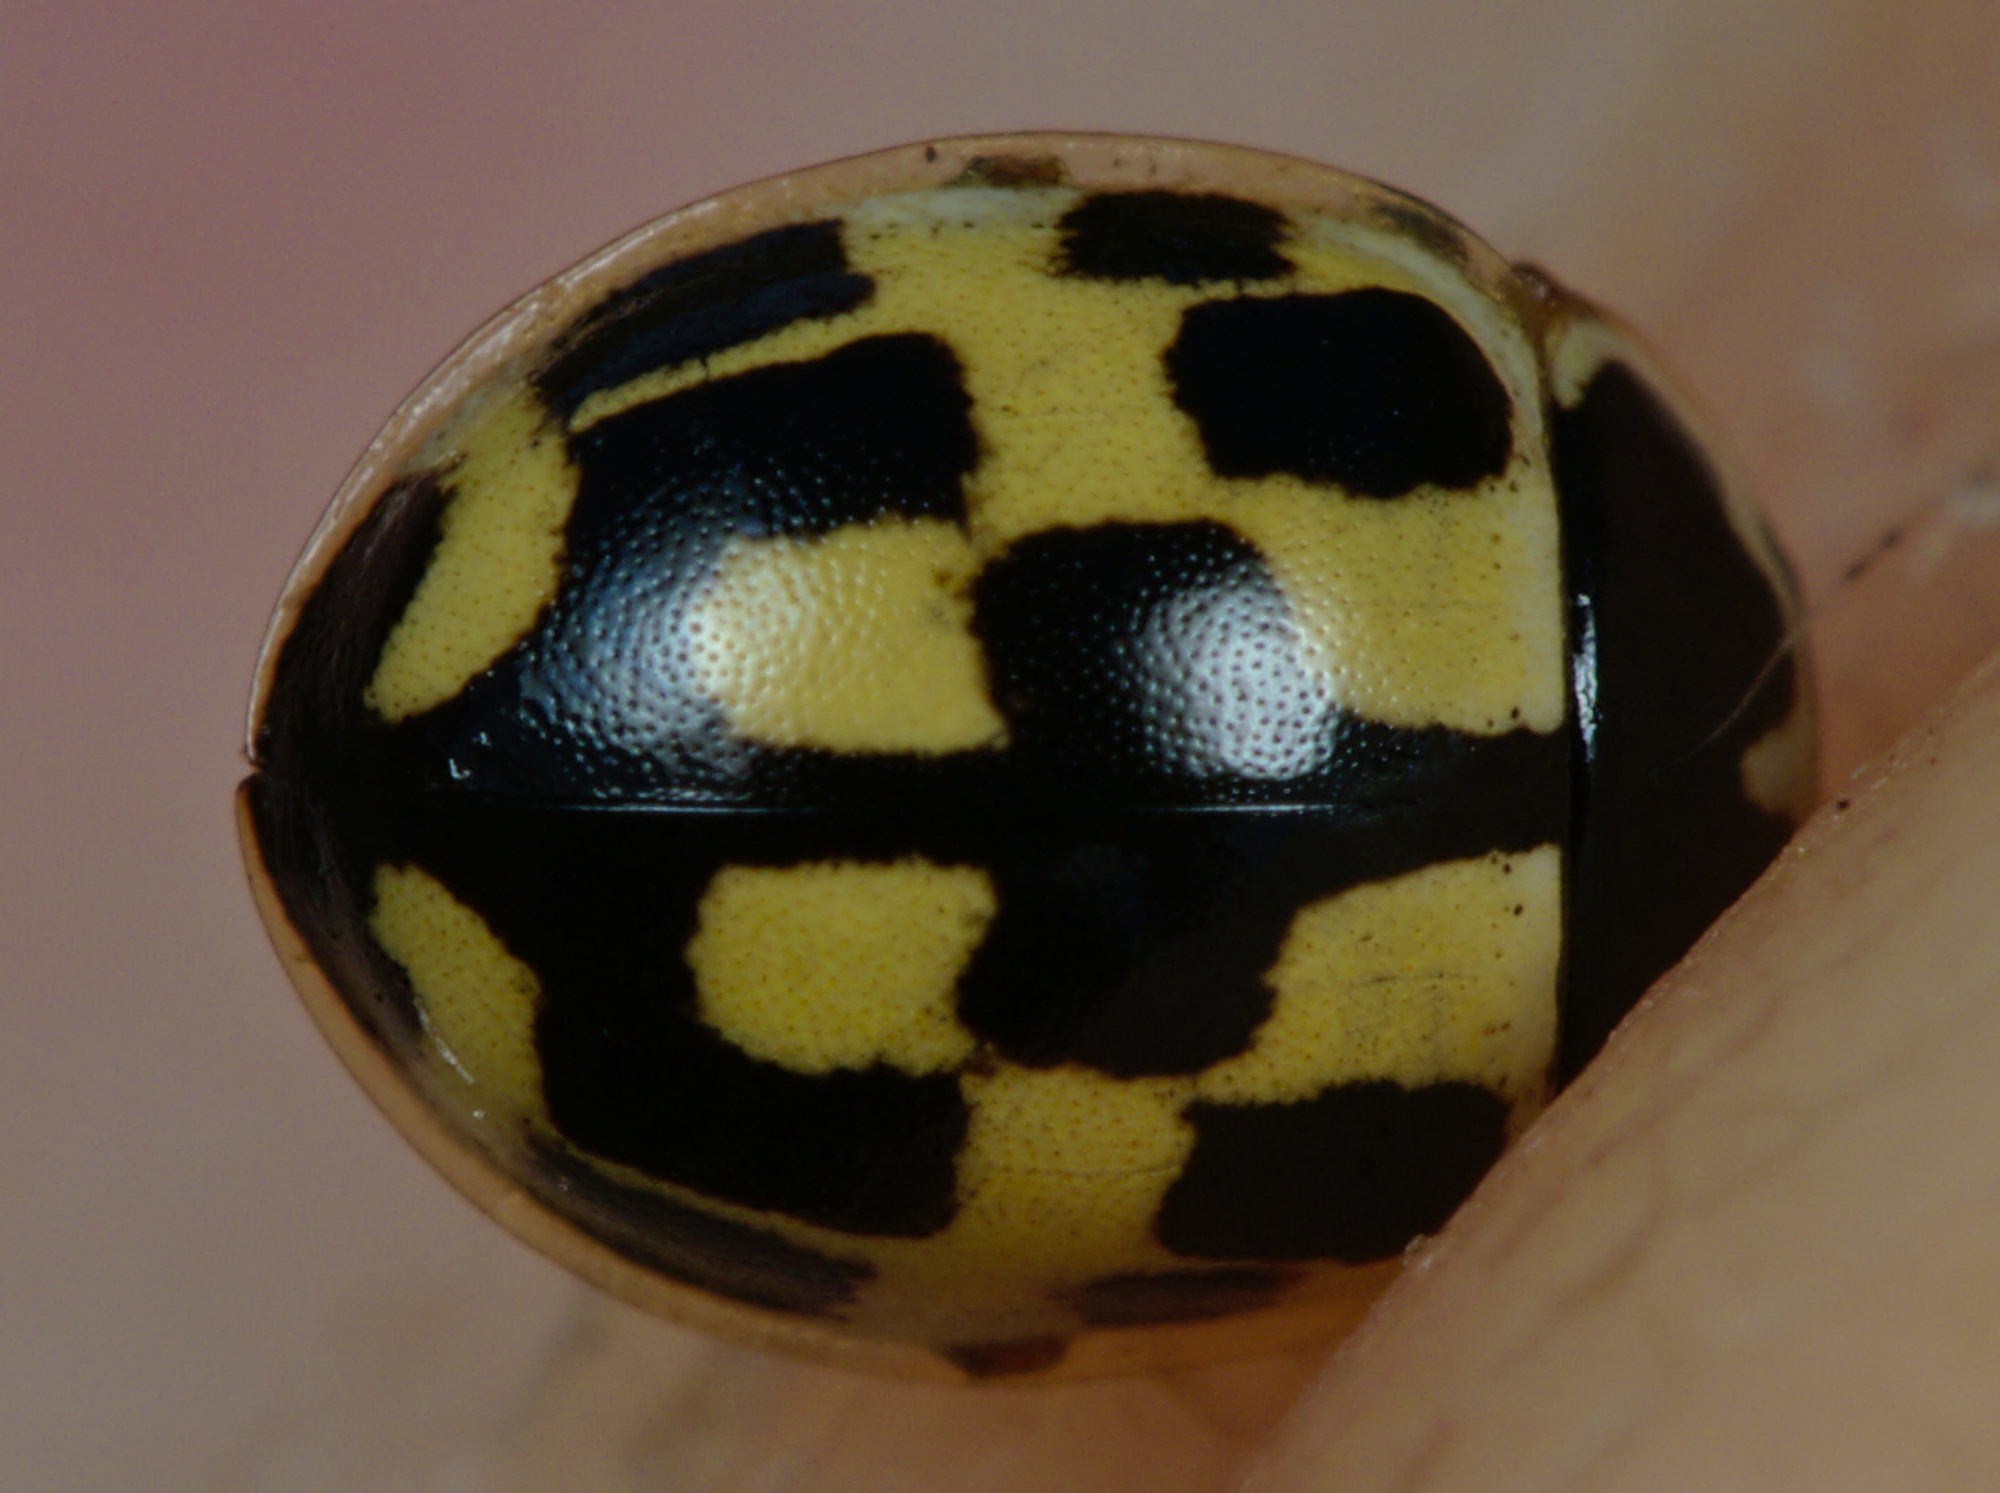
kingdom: Animalia
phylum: Arthropoda
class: Insecta
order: Coleoptera
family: Coccinellidae
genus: Propylaea
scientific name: Propylaea quatuordecimpunctata
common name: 14-spotted ladybird beetle
